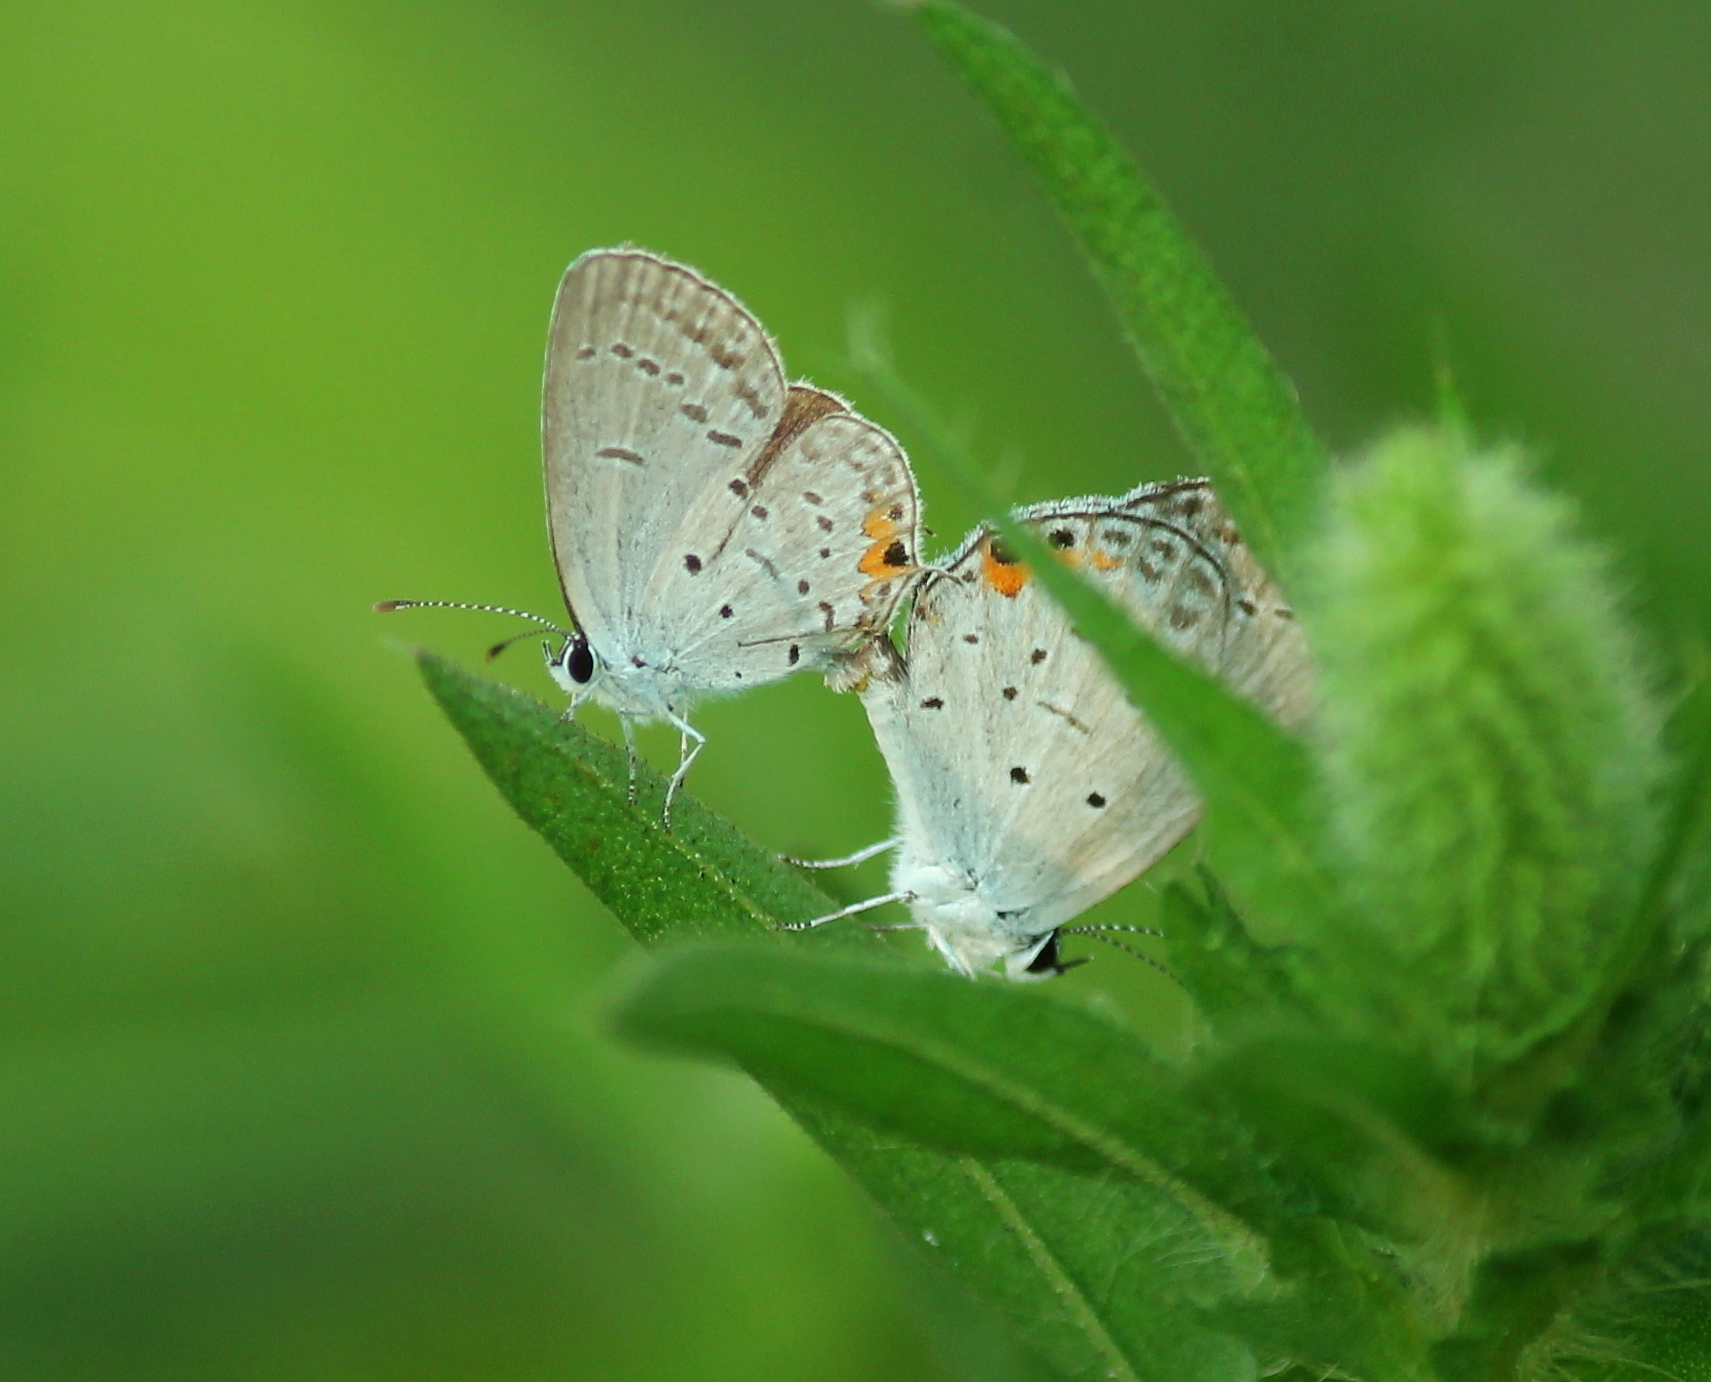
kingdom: Animalia
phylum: Arthropoda
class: Insecta
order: Lepidoptera
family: Lycaenidae
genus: Elkalyce
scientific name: Elkalyce comyntas
